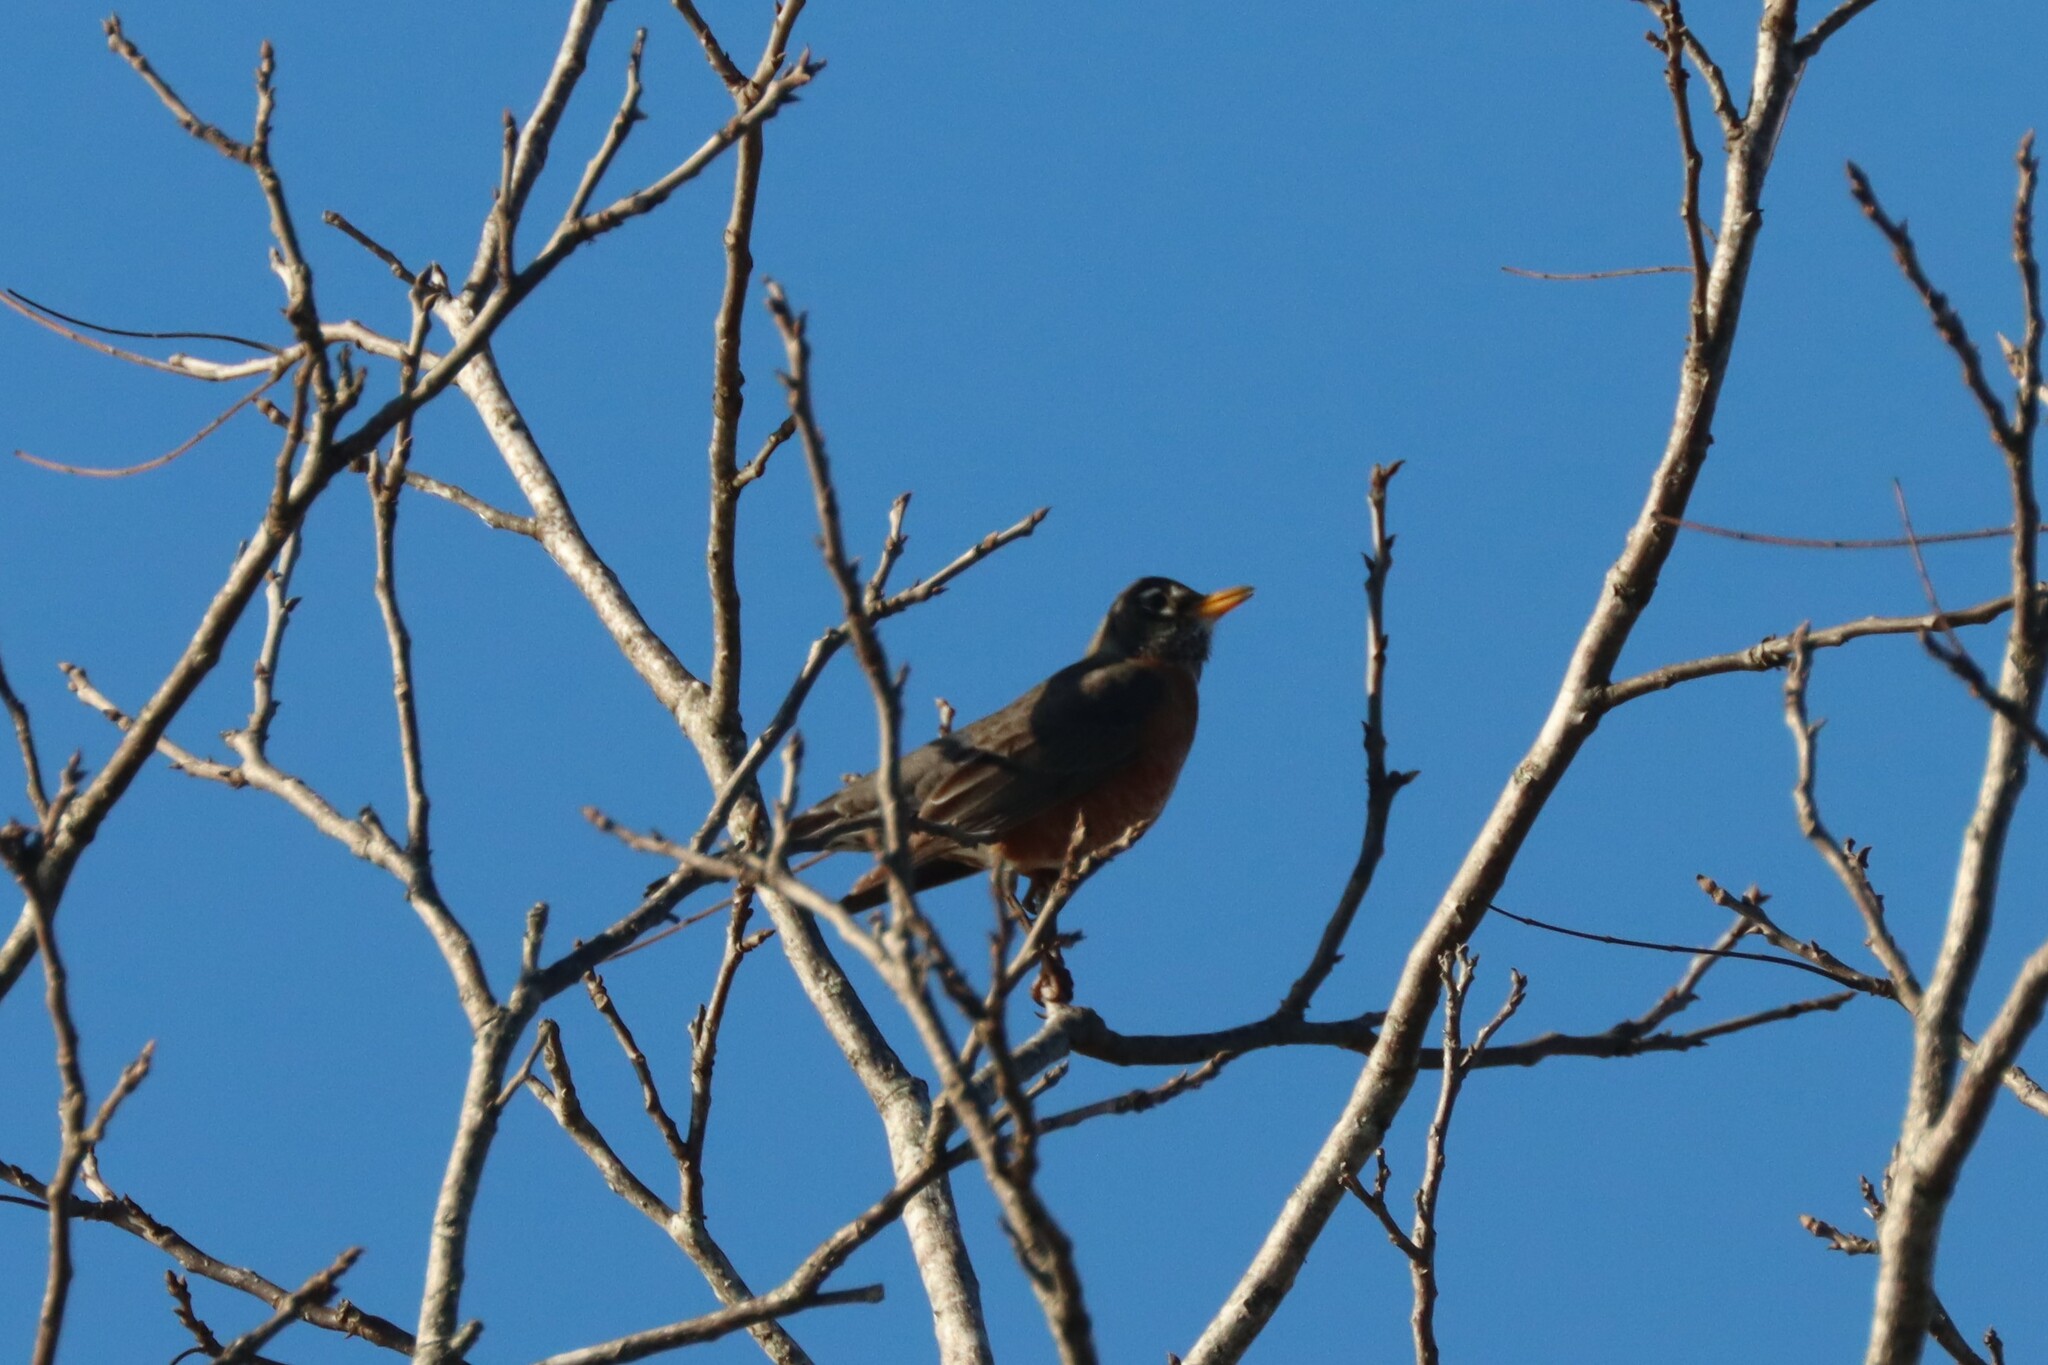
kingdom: Animalia
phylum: Chordata
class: Aves
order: Passeriformes
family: Turdidae
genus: Turdus
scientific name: Turdus migratorius
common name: American robin
